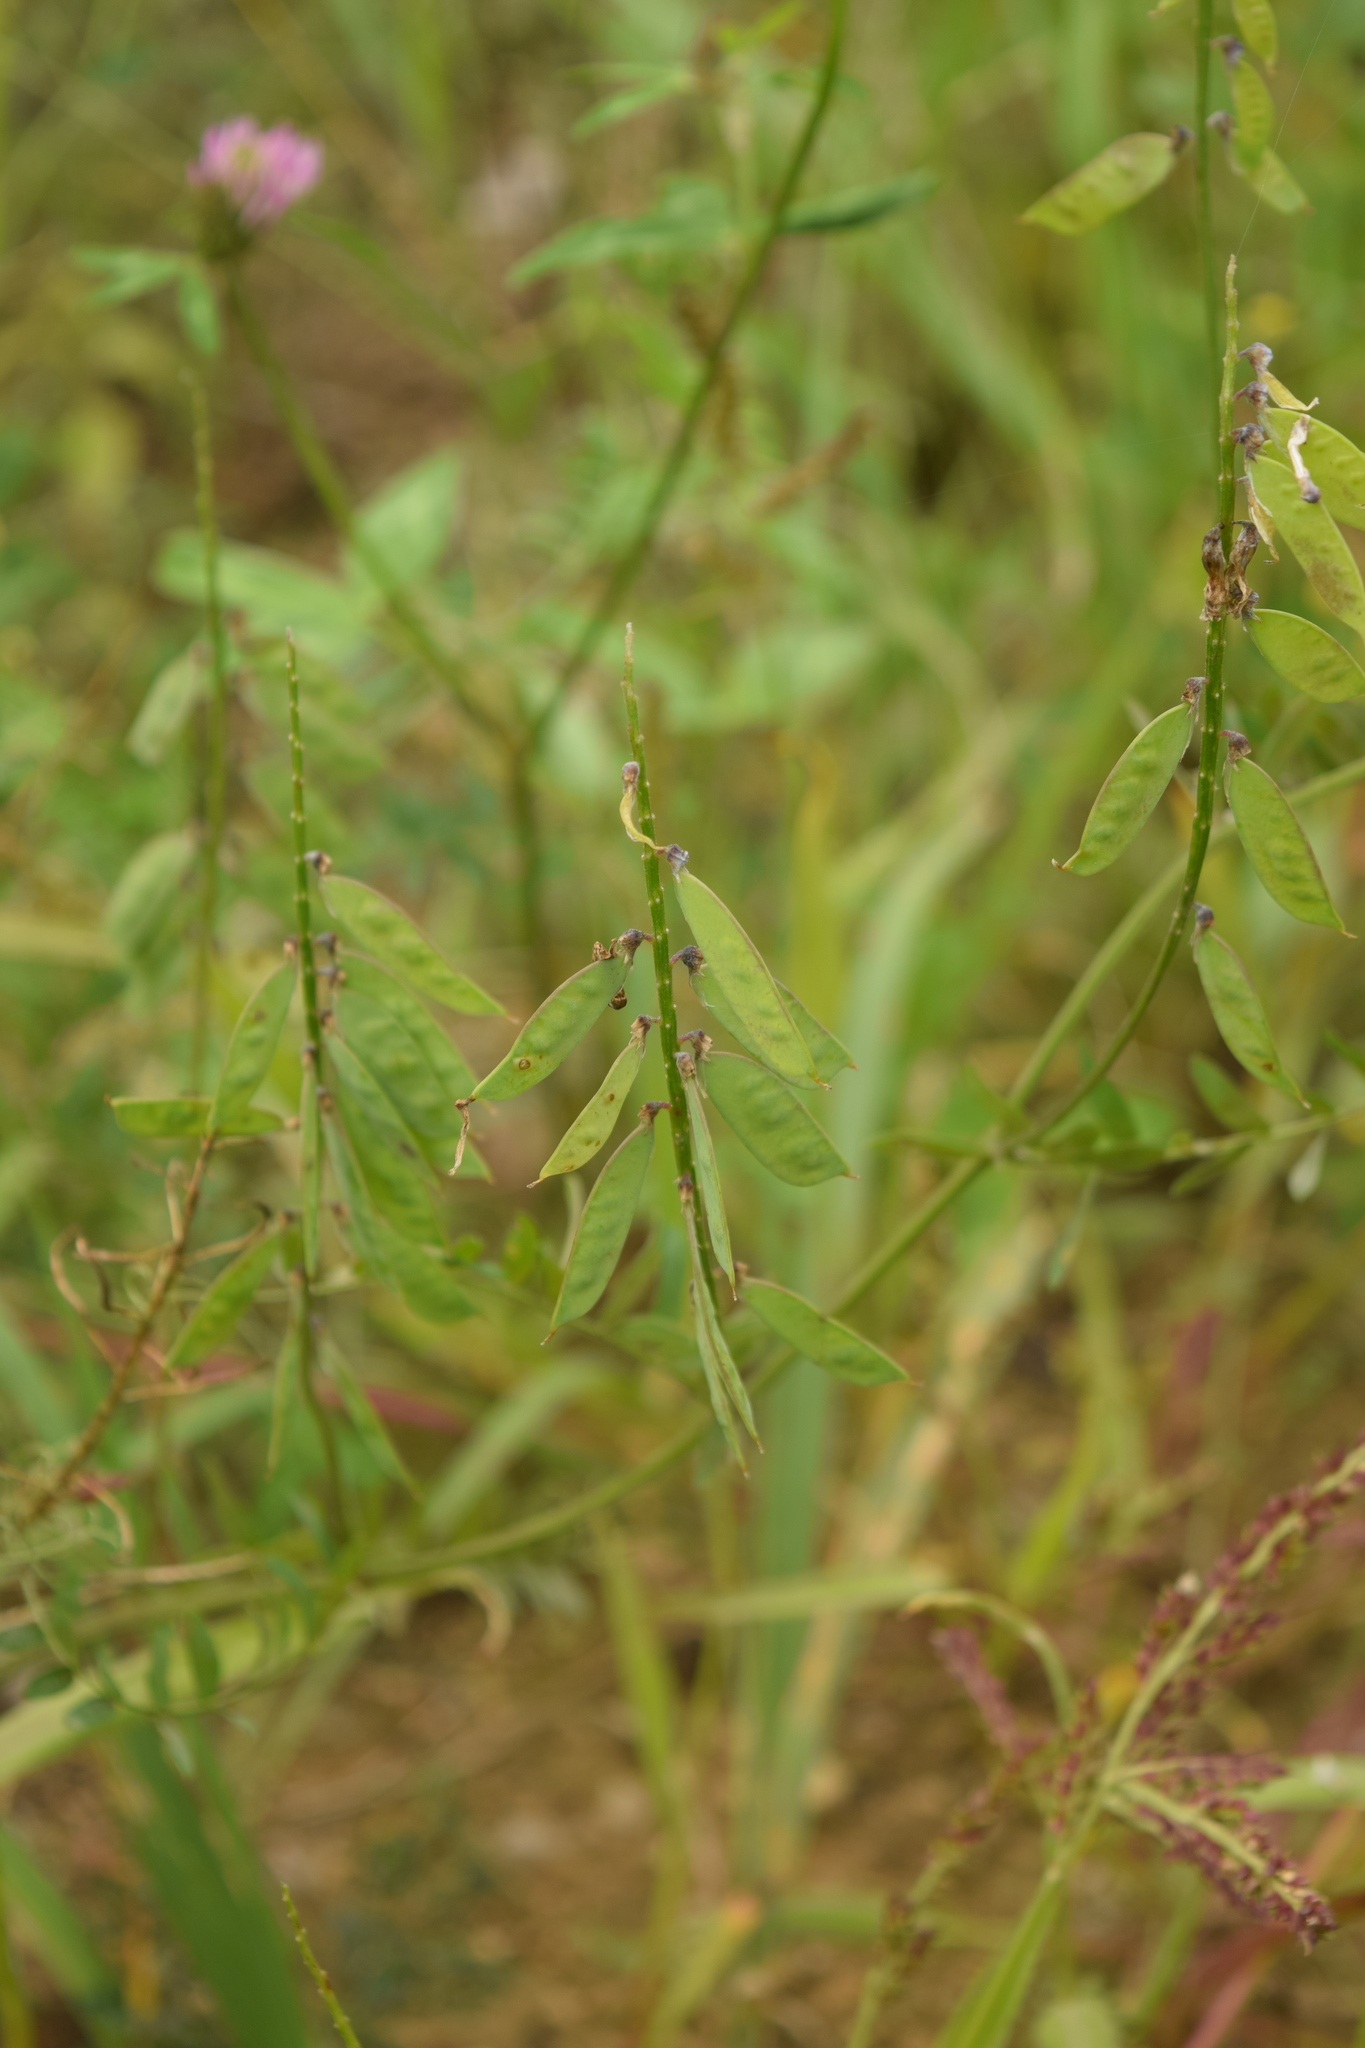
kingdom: Plantae
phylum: Tracheophyta
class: Magnoliopsida
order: Fabales
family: Fabaceae
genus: Vicia
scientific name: Vicia cracca
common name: Bird vetch
